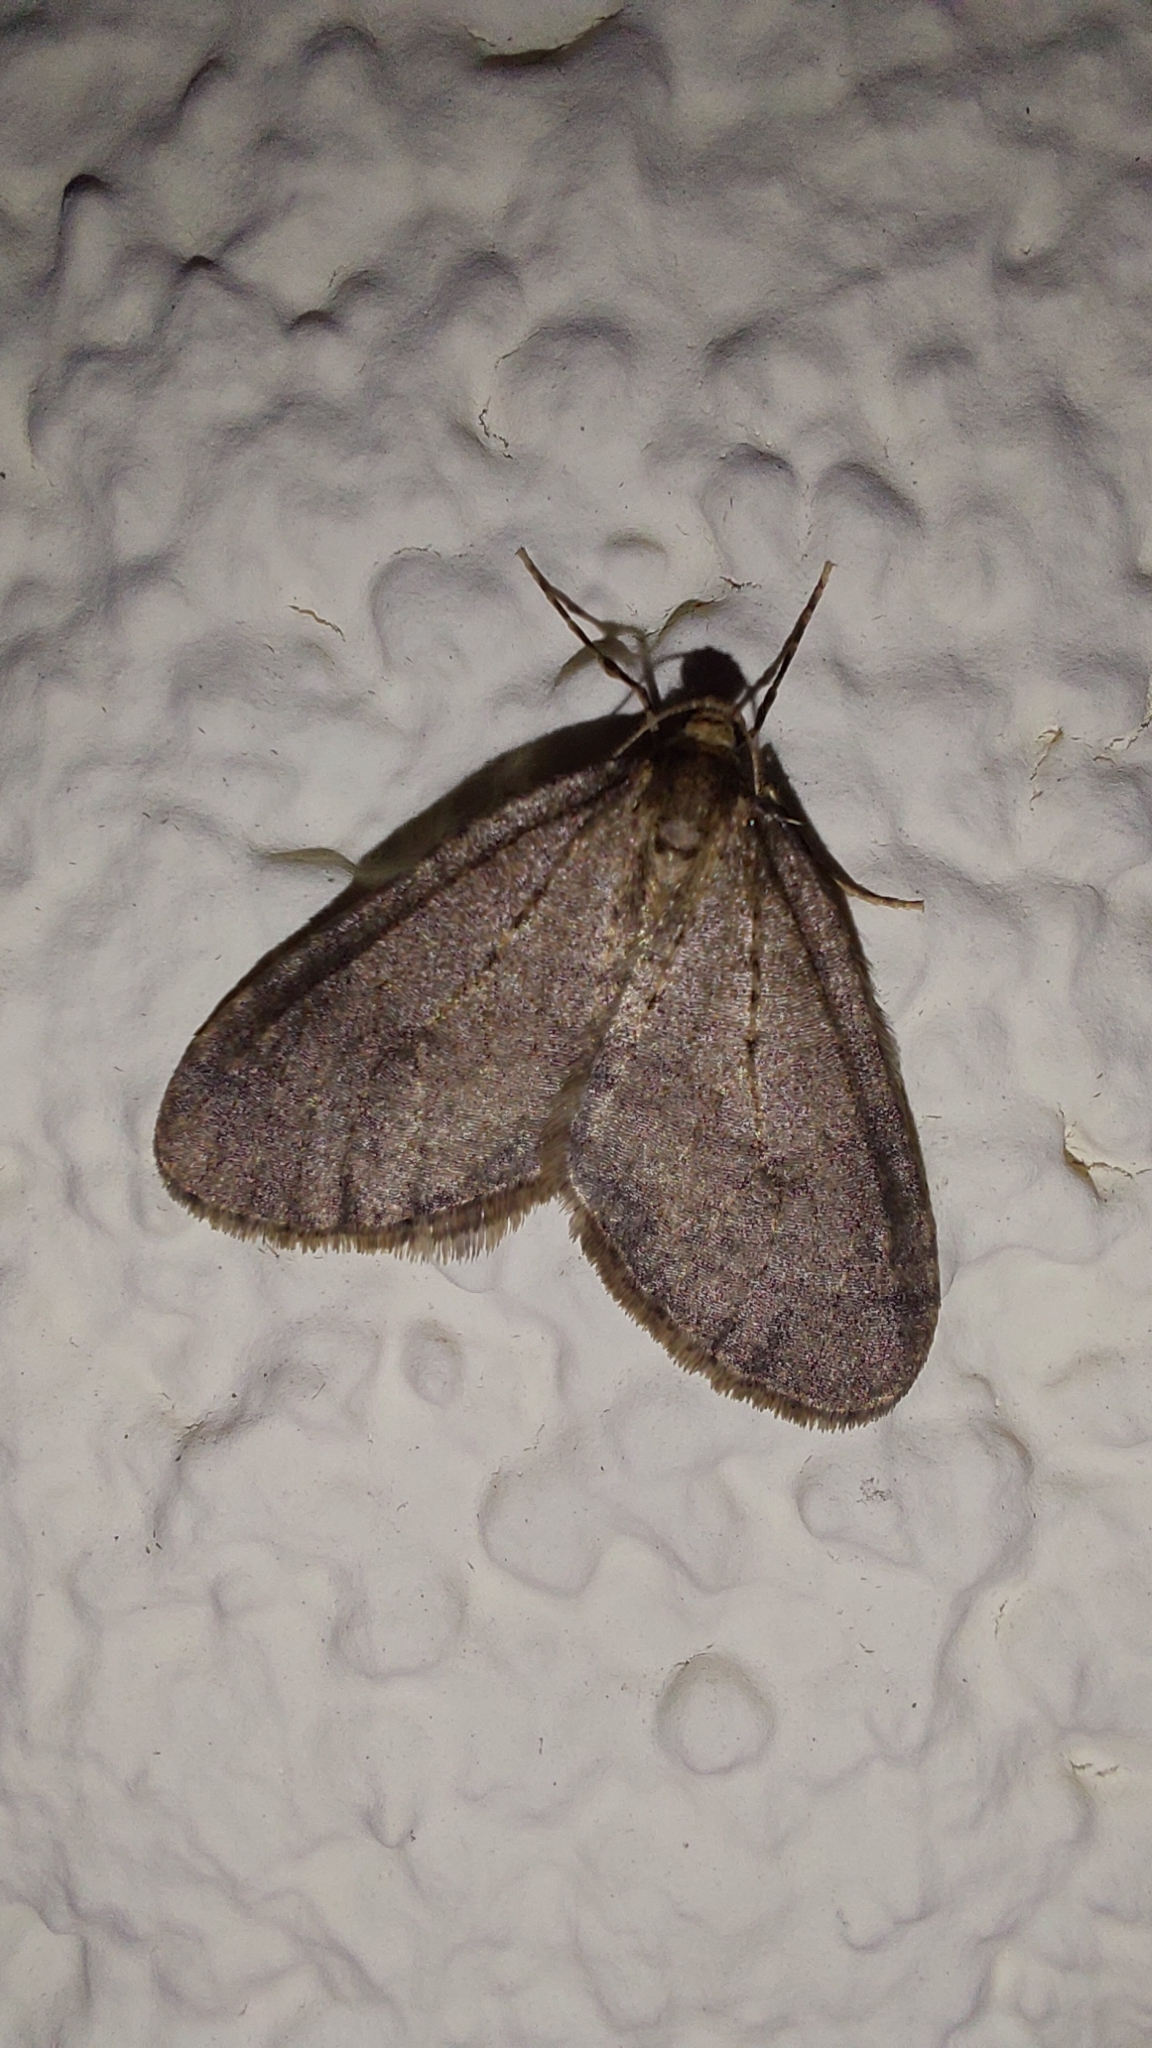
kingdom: Animalia
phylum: Arthropoda
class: Insecta
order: Lepidoptera
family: Geometridae
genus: Operophtera
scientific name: Operophtera brumata
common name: Winter moth
